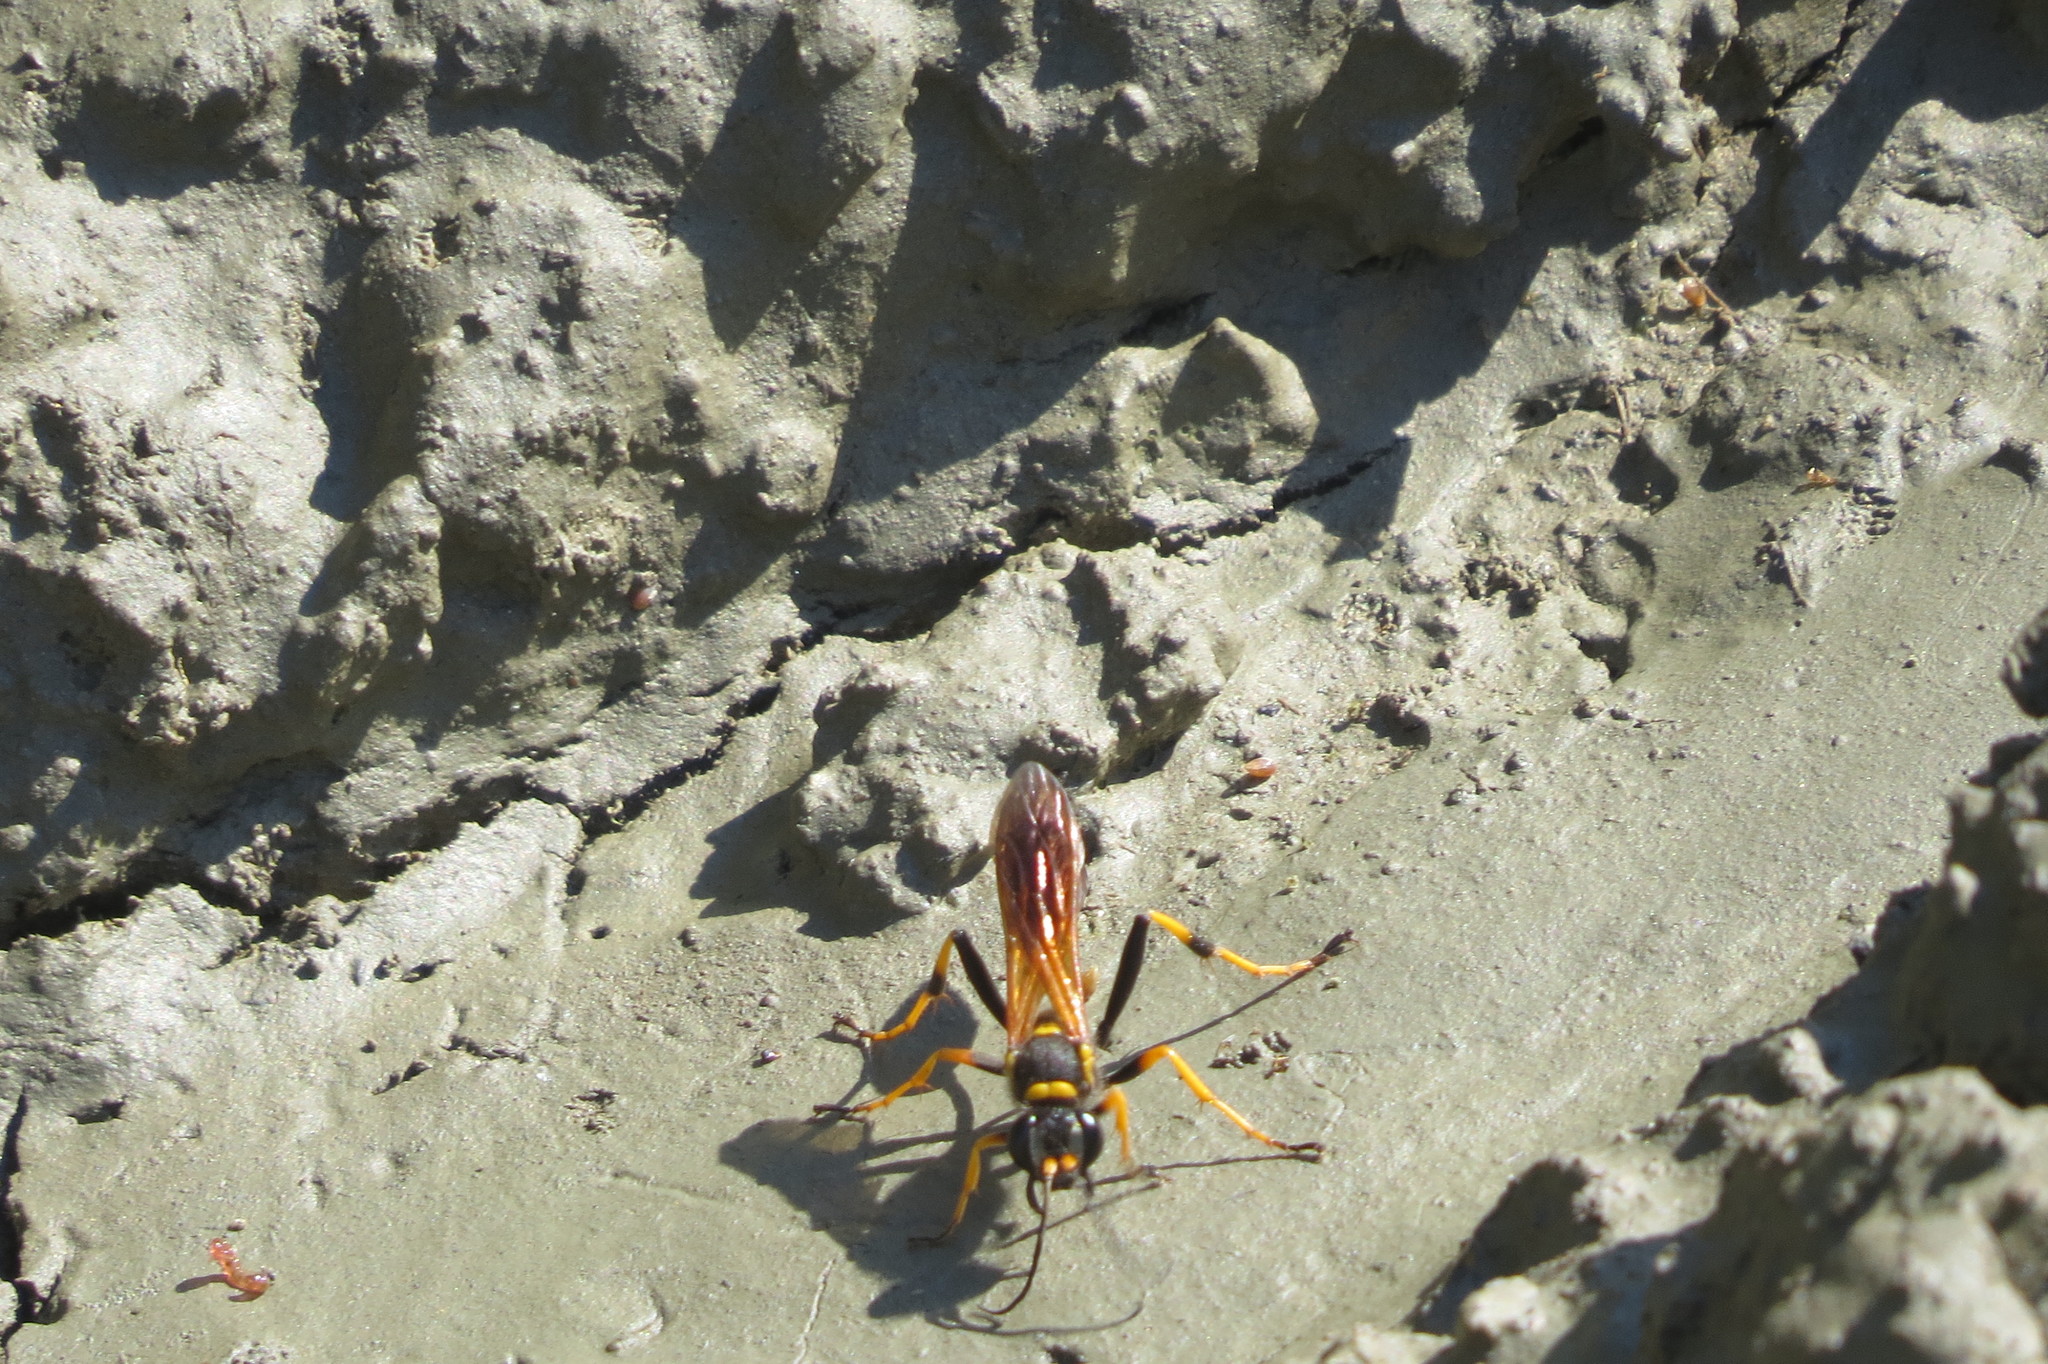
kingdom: Animalia
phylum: Arthropoda
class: Insecta
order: Hymenoptera
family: Sphecidae
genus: Sceliphron
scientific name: Sceliphron caementarium
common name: Mud dauber
